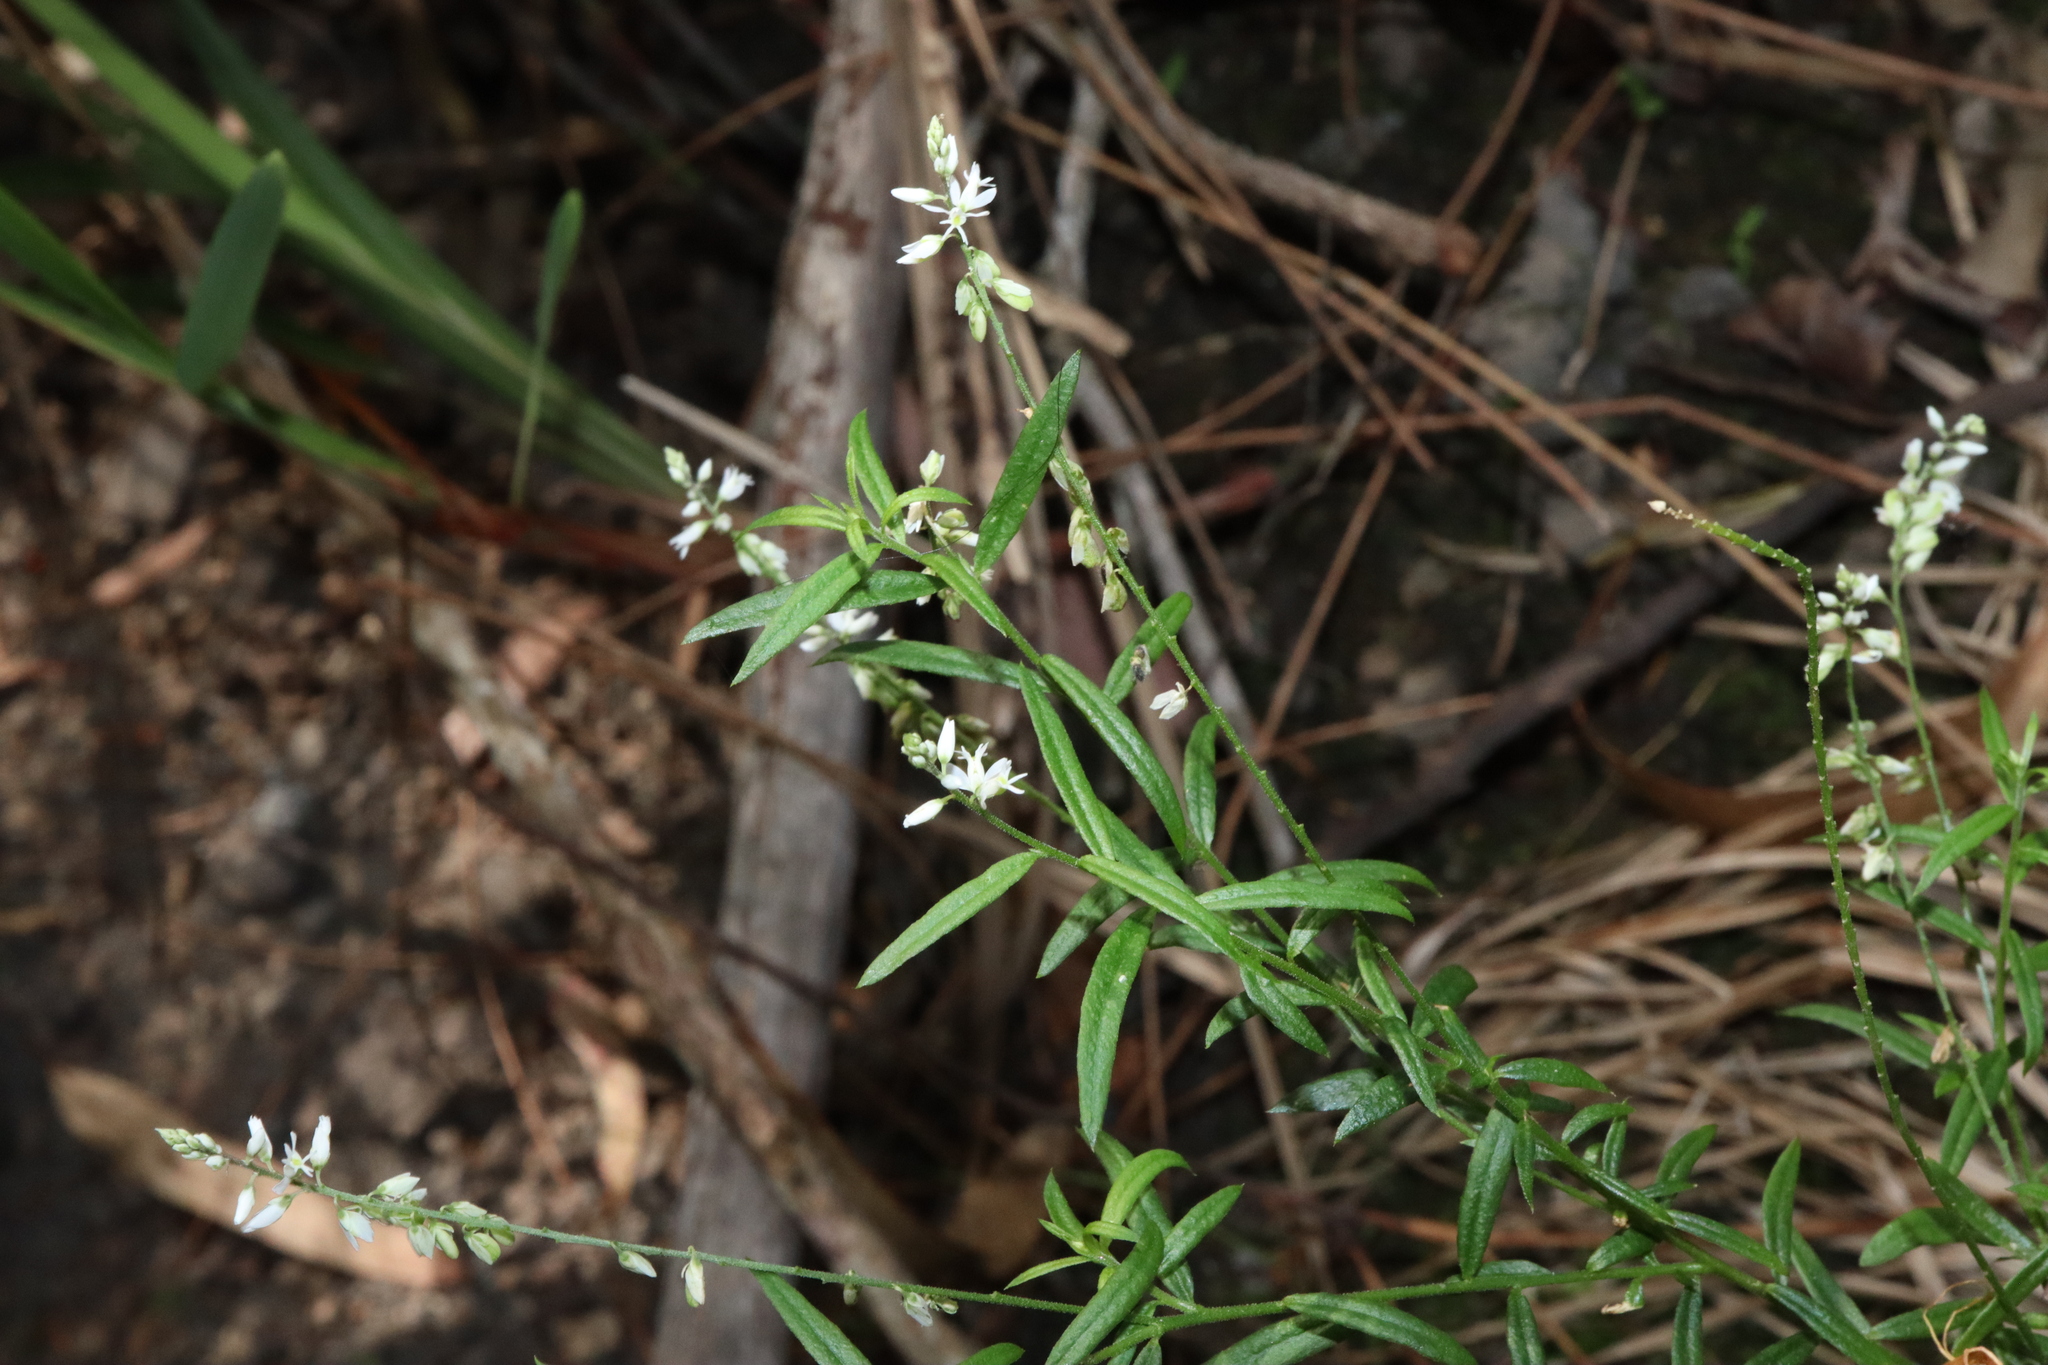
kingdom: Plantae
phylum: Tracheophyta
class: Magnoliopsida
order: Fabales
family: Polygalaceae
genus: Polygala
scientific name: Polygala paniculata
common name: Orosne
